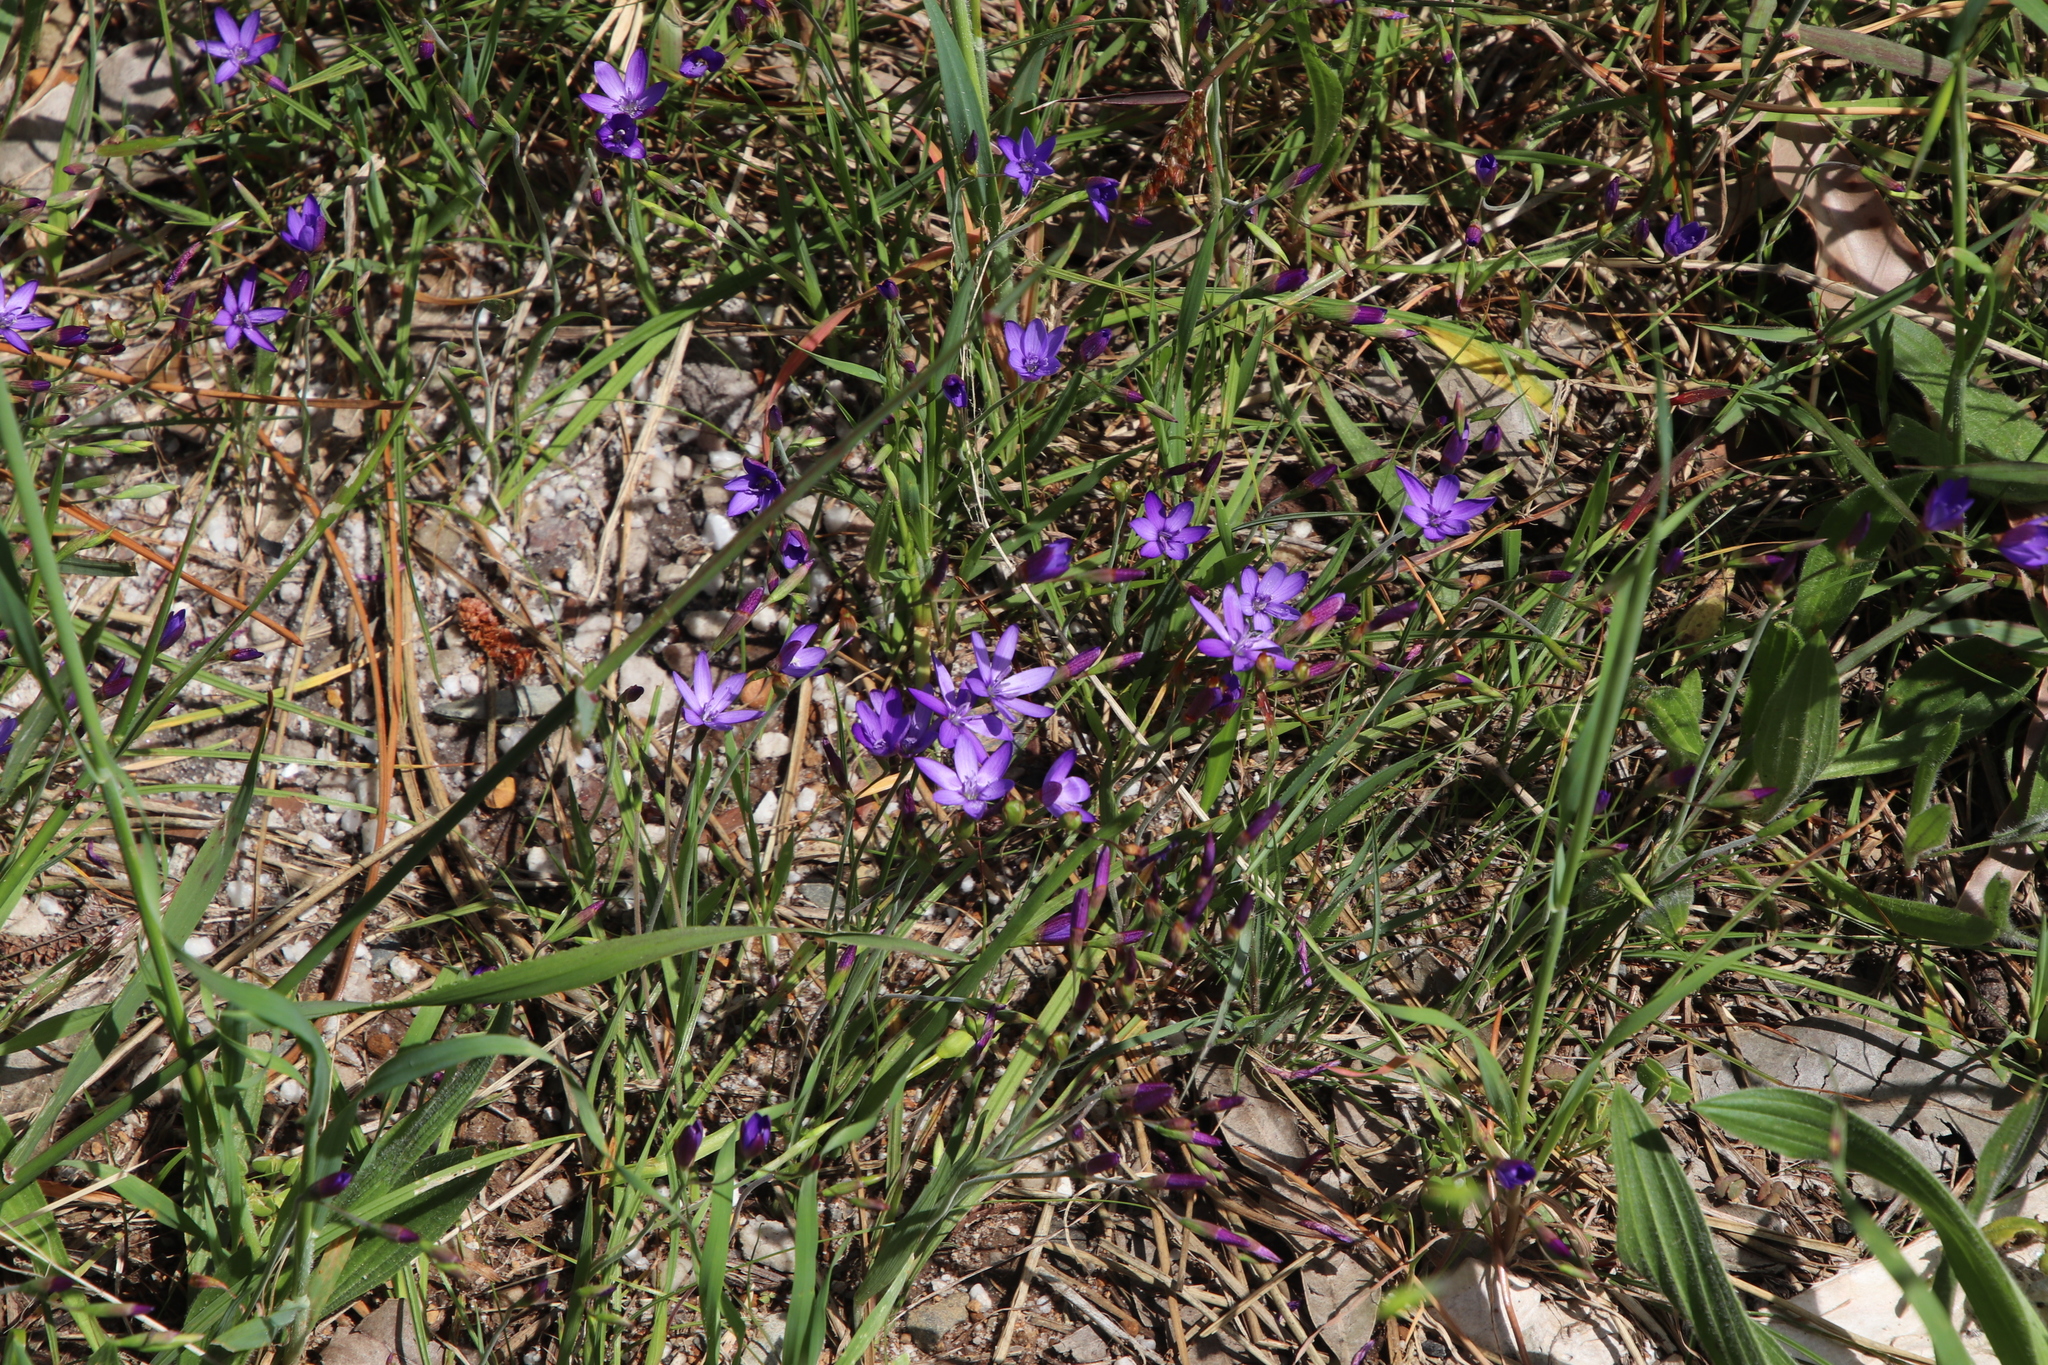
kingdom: Plantae
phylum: Tracheophyta
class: Liliopsida
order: Asparagales
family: Iridaceae
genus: Geissorhiza
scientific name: Geissorhiza aspera
